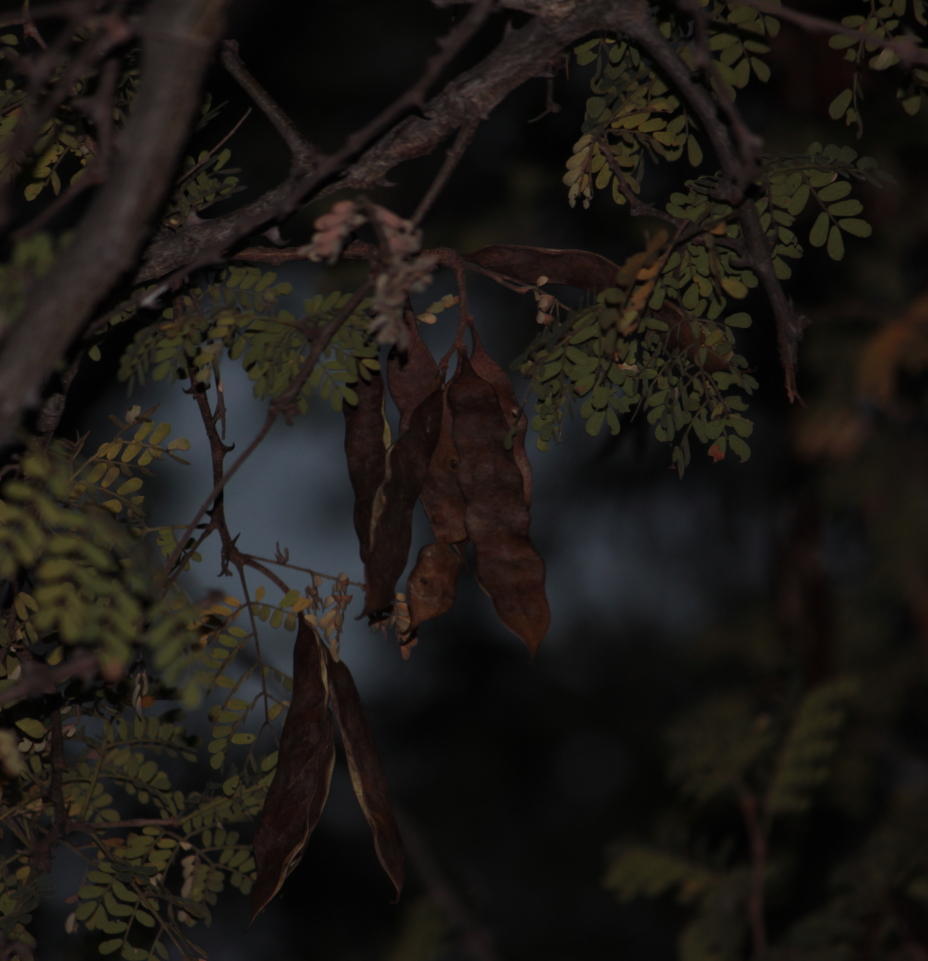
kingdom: Plantae
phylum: Tracheophyta
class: Magnoliopsida
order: Fabales
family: Fabaceae
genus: Senegalia
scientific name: Senegalia burkei
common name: Black monkey thorn
